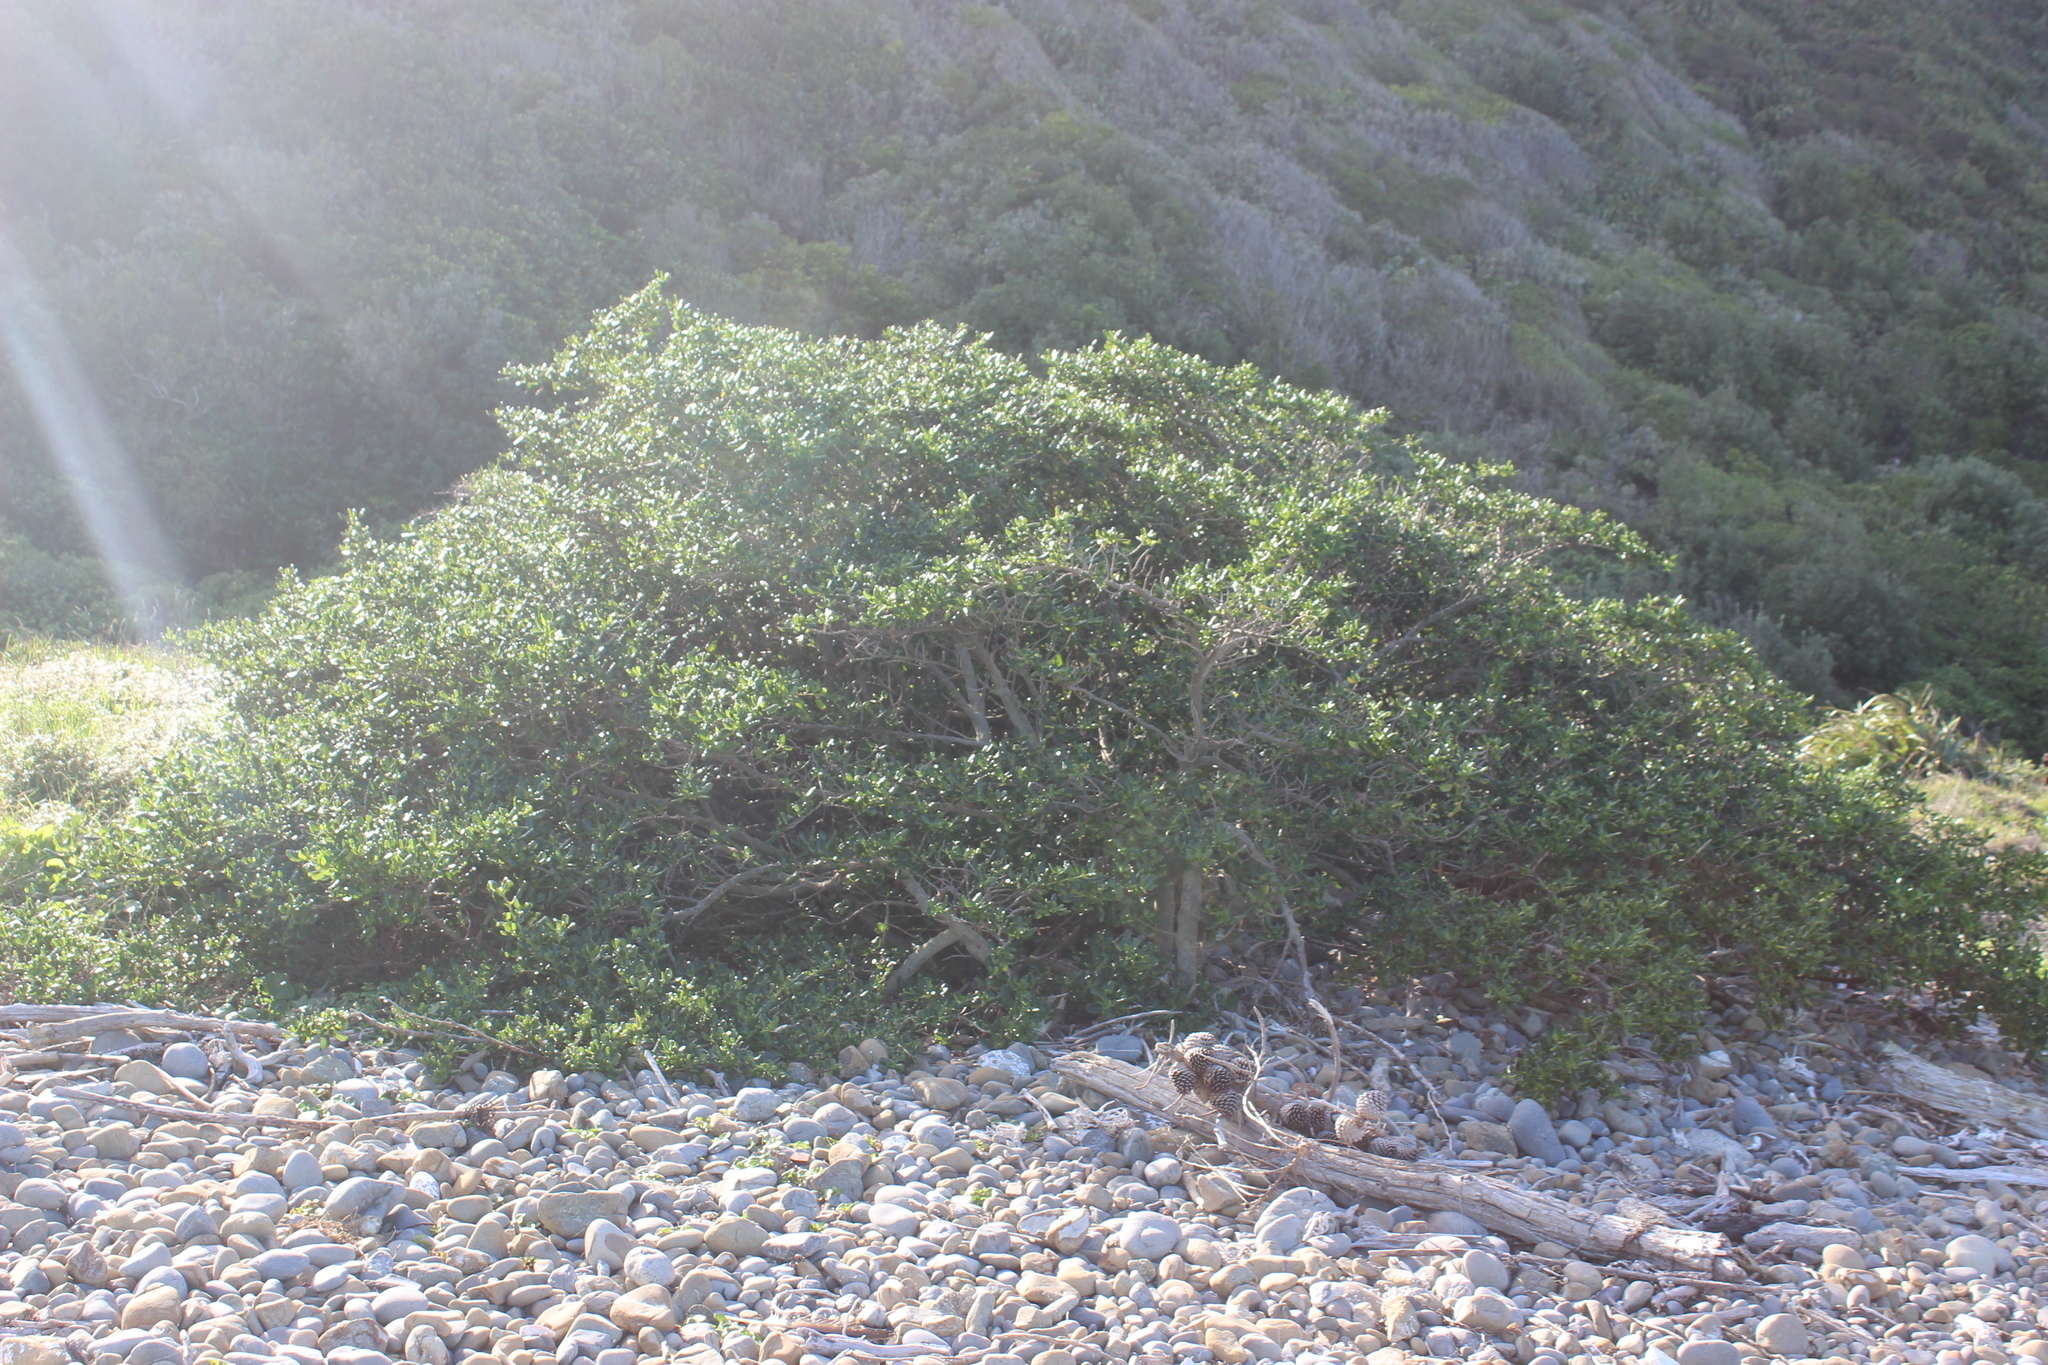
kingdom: Plantae
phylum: Tracheophyta
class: Magnoliopsida
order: Gentianales
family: Rubiaceae
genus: Coprosma
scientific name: Coprosma repens
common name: Tree bedstraw
